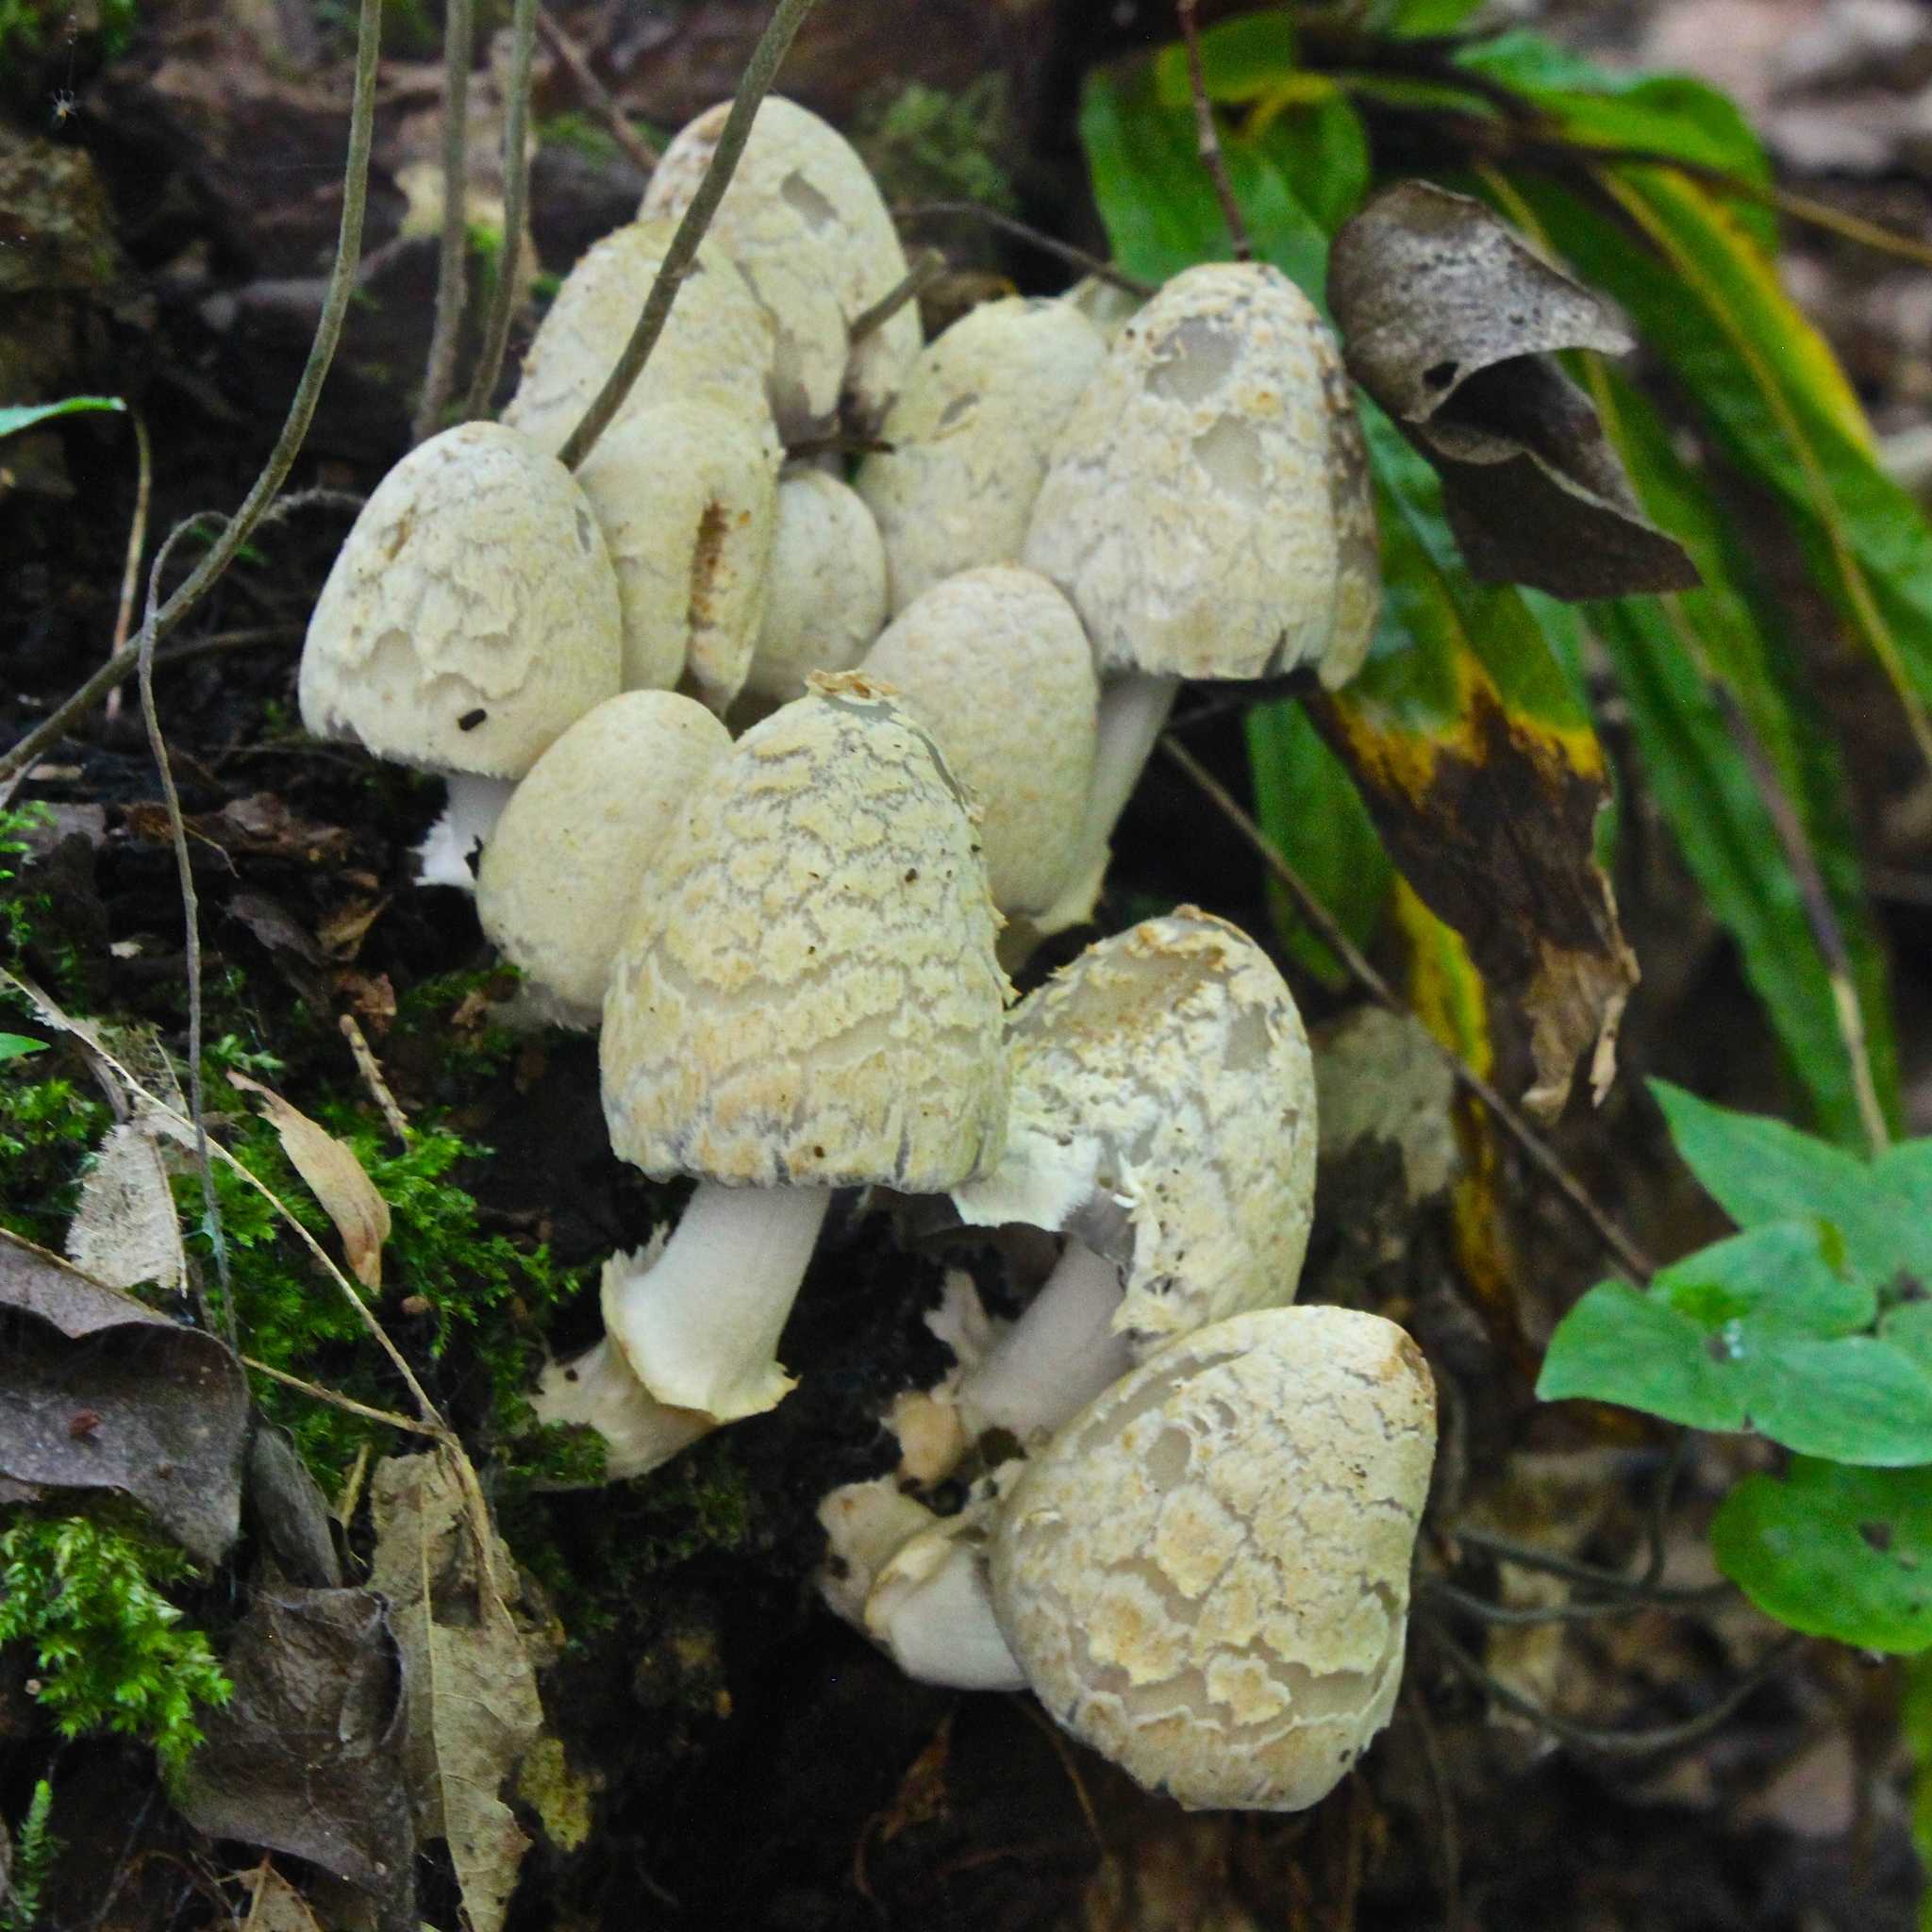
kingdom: Fungi
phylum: Basidiomycota
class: Agaricomycetes
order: Agaricales
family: Psathyrellaceae
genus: Coprinopsis
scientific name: Coprinopsis variegata
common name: Scaly ink cap
